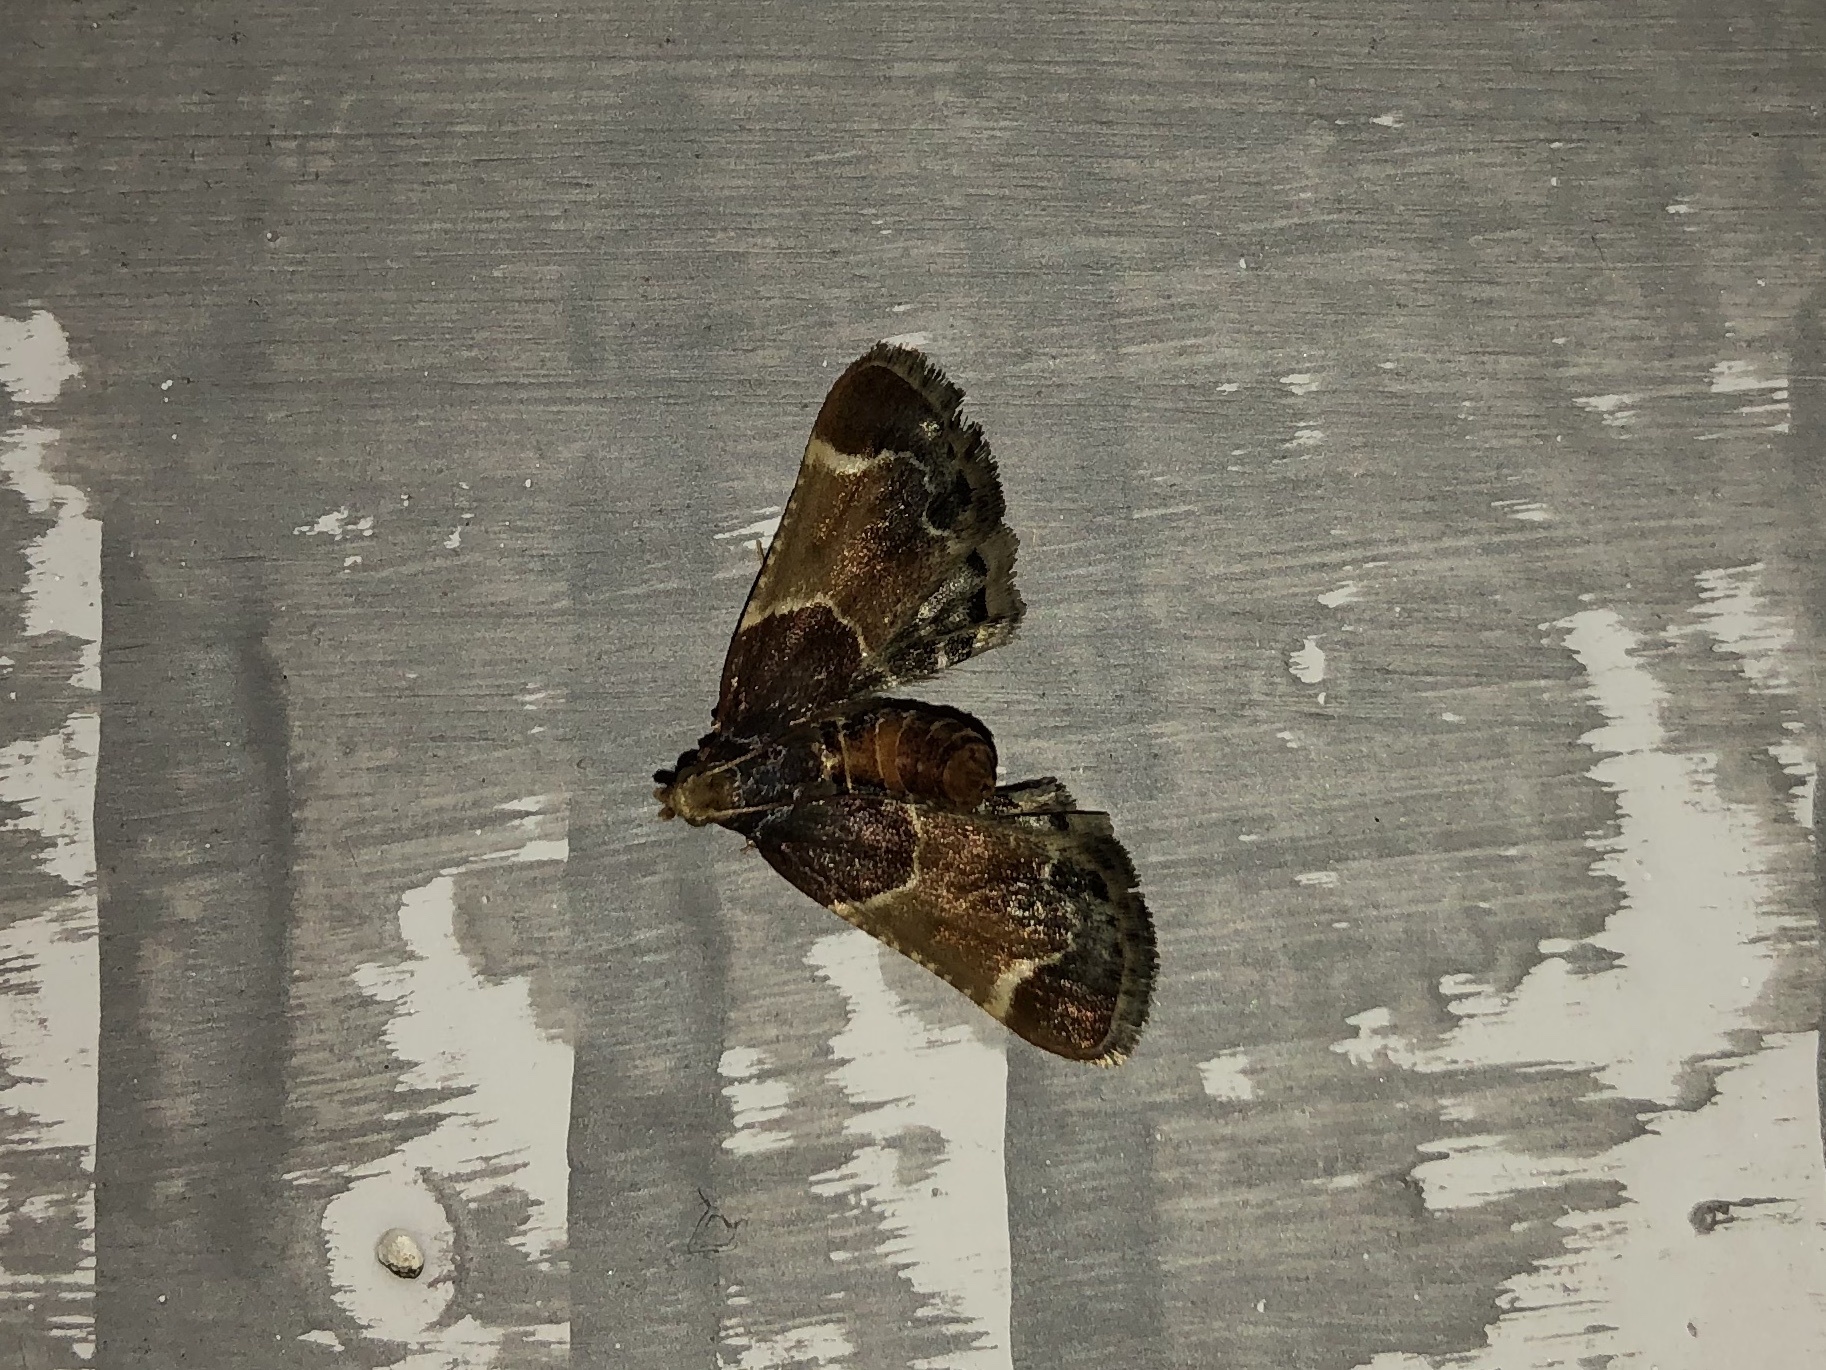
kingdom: Animalia
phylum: Arthropoda
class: Insecta
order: Lepidoptera
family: Pyralidae
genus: Pyralis
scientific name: Pyralis farinalis
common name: Meal moth
